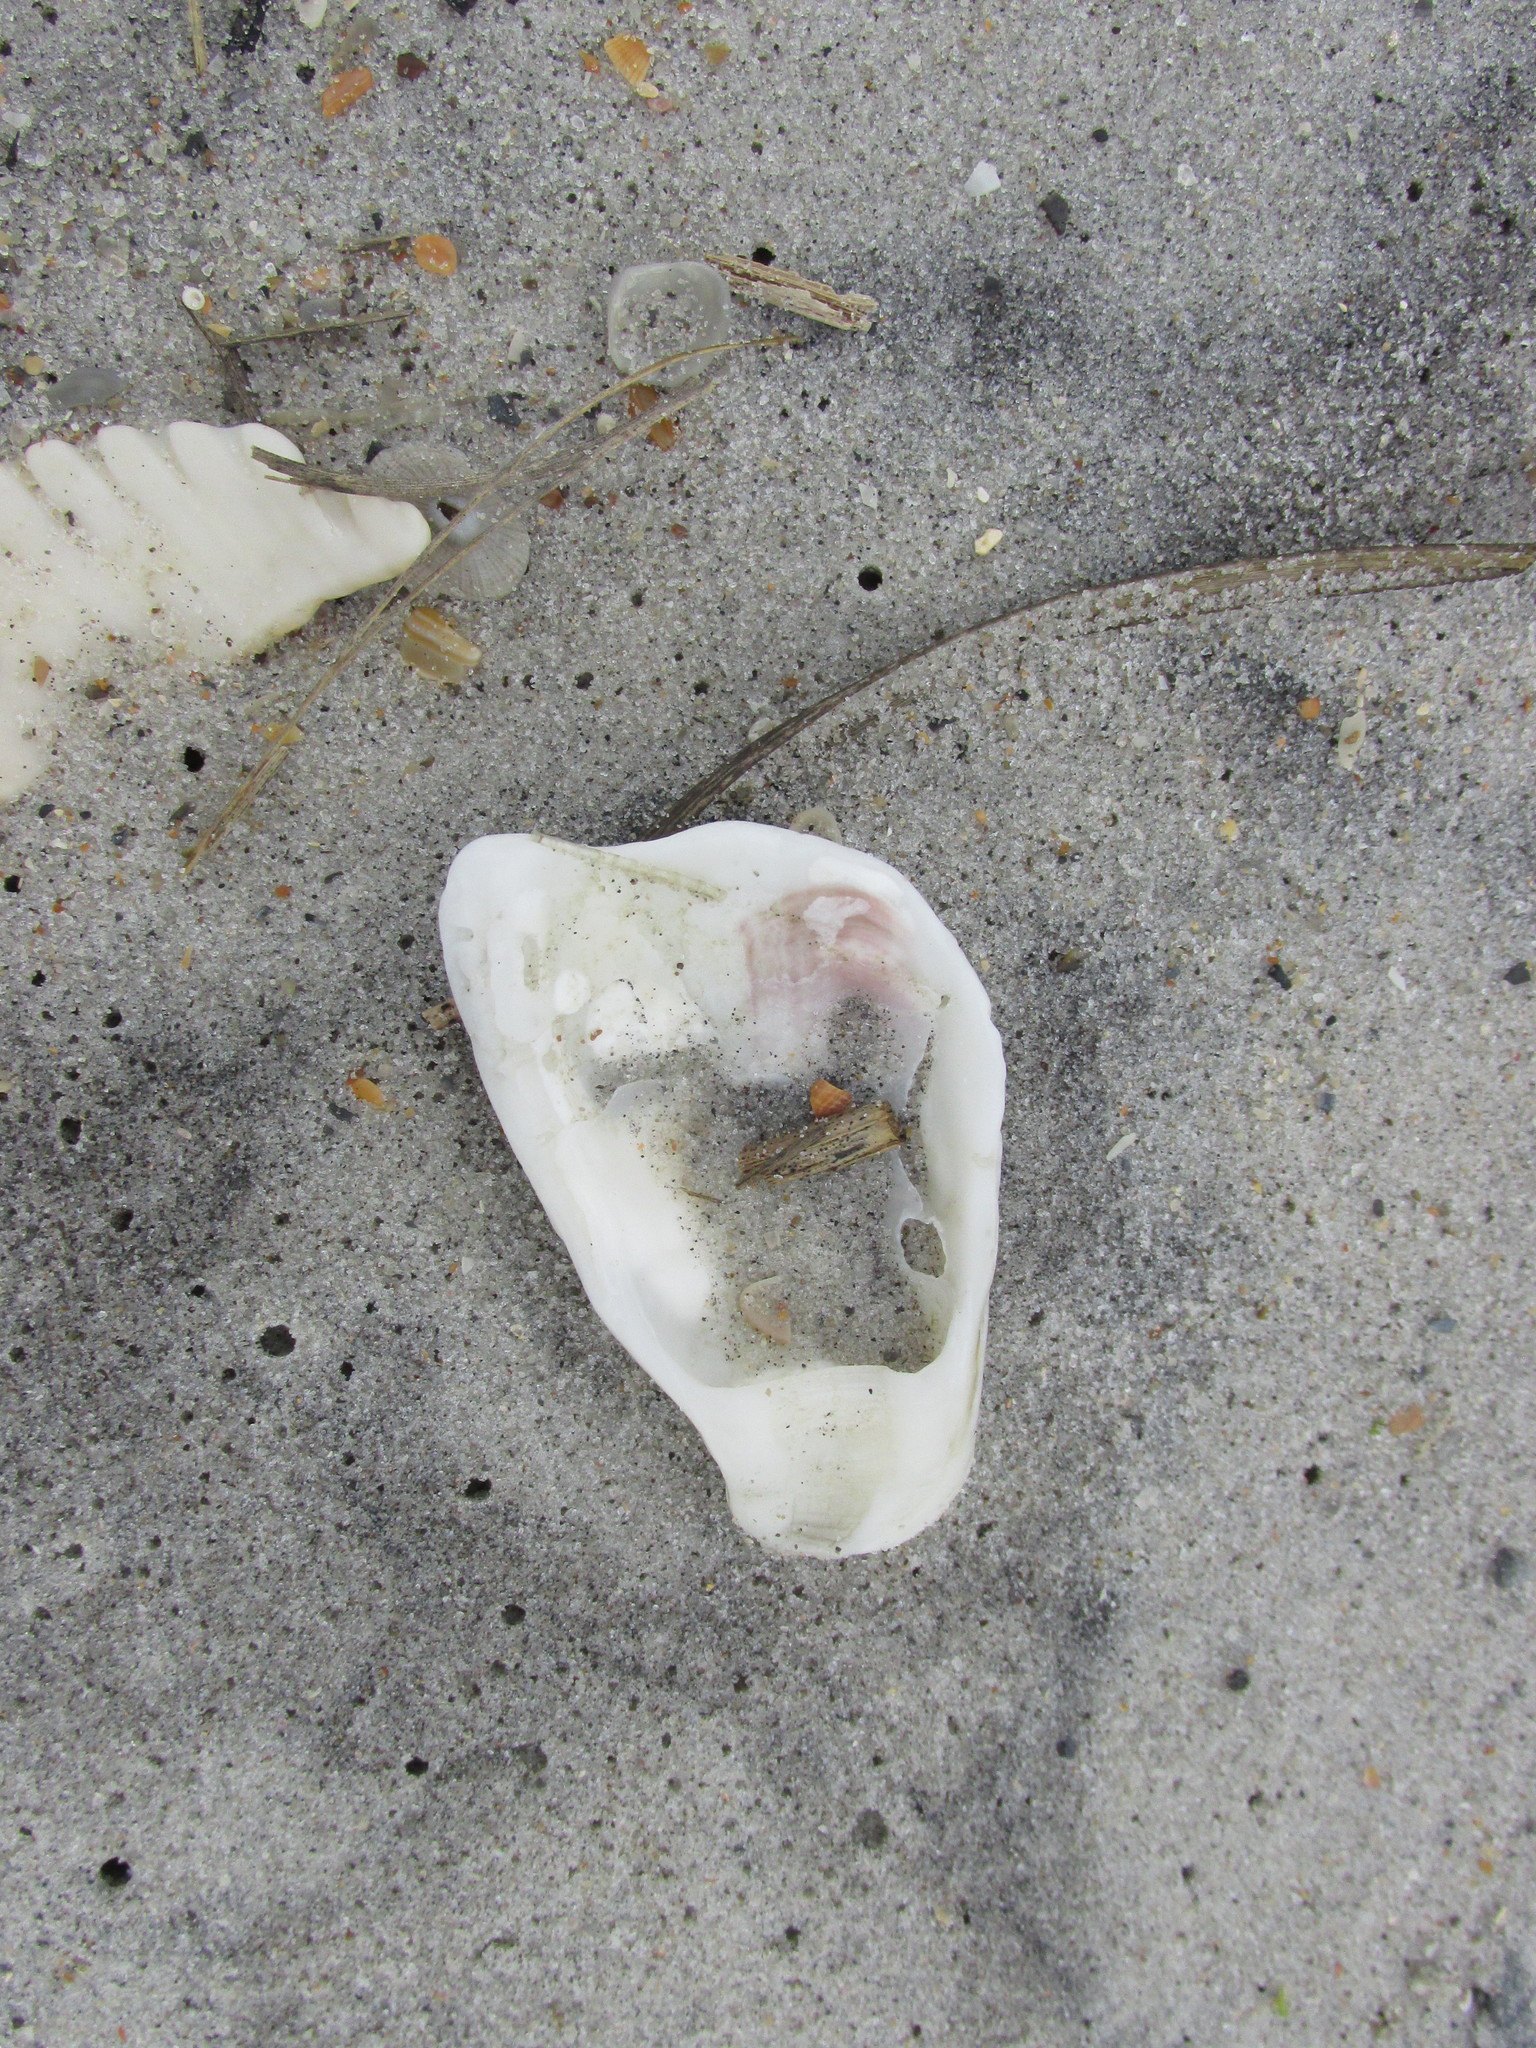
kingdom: Animalia
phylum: Mollusca
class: Bivalvia
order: Ostreida
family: Ostreidae
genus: Crassostrea
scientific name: Crassostrea virginica
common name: American oyster
